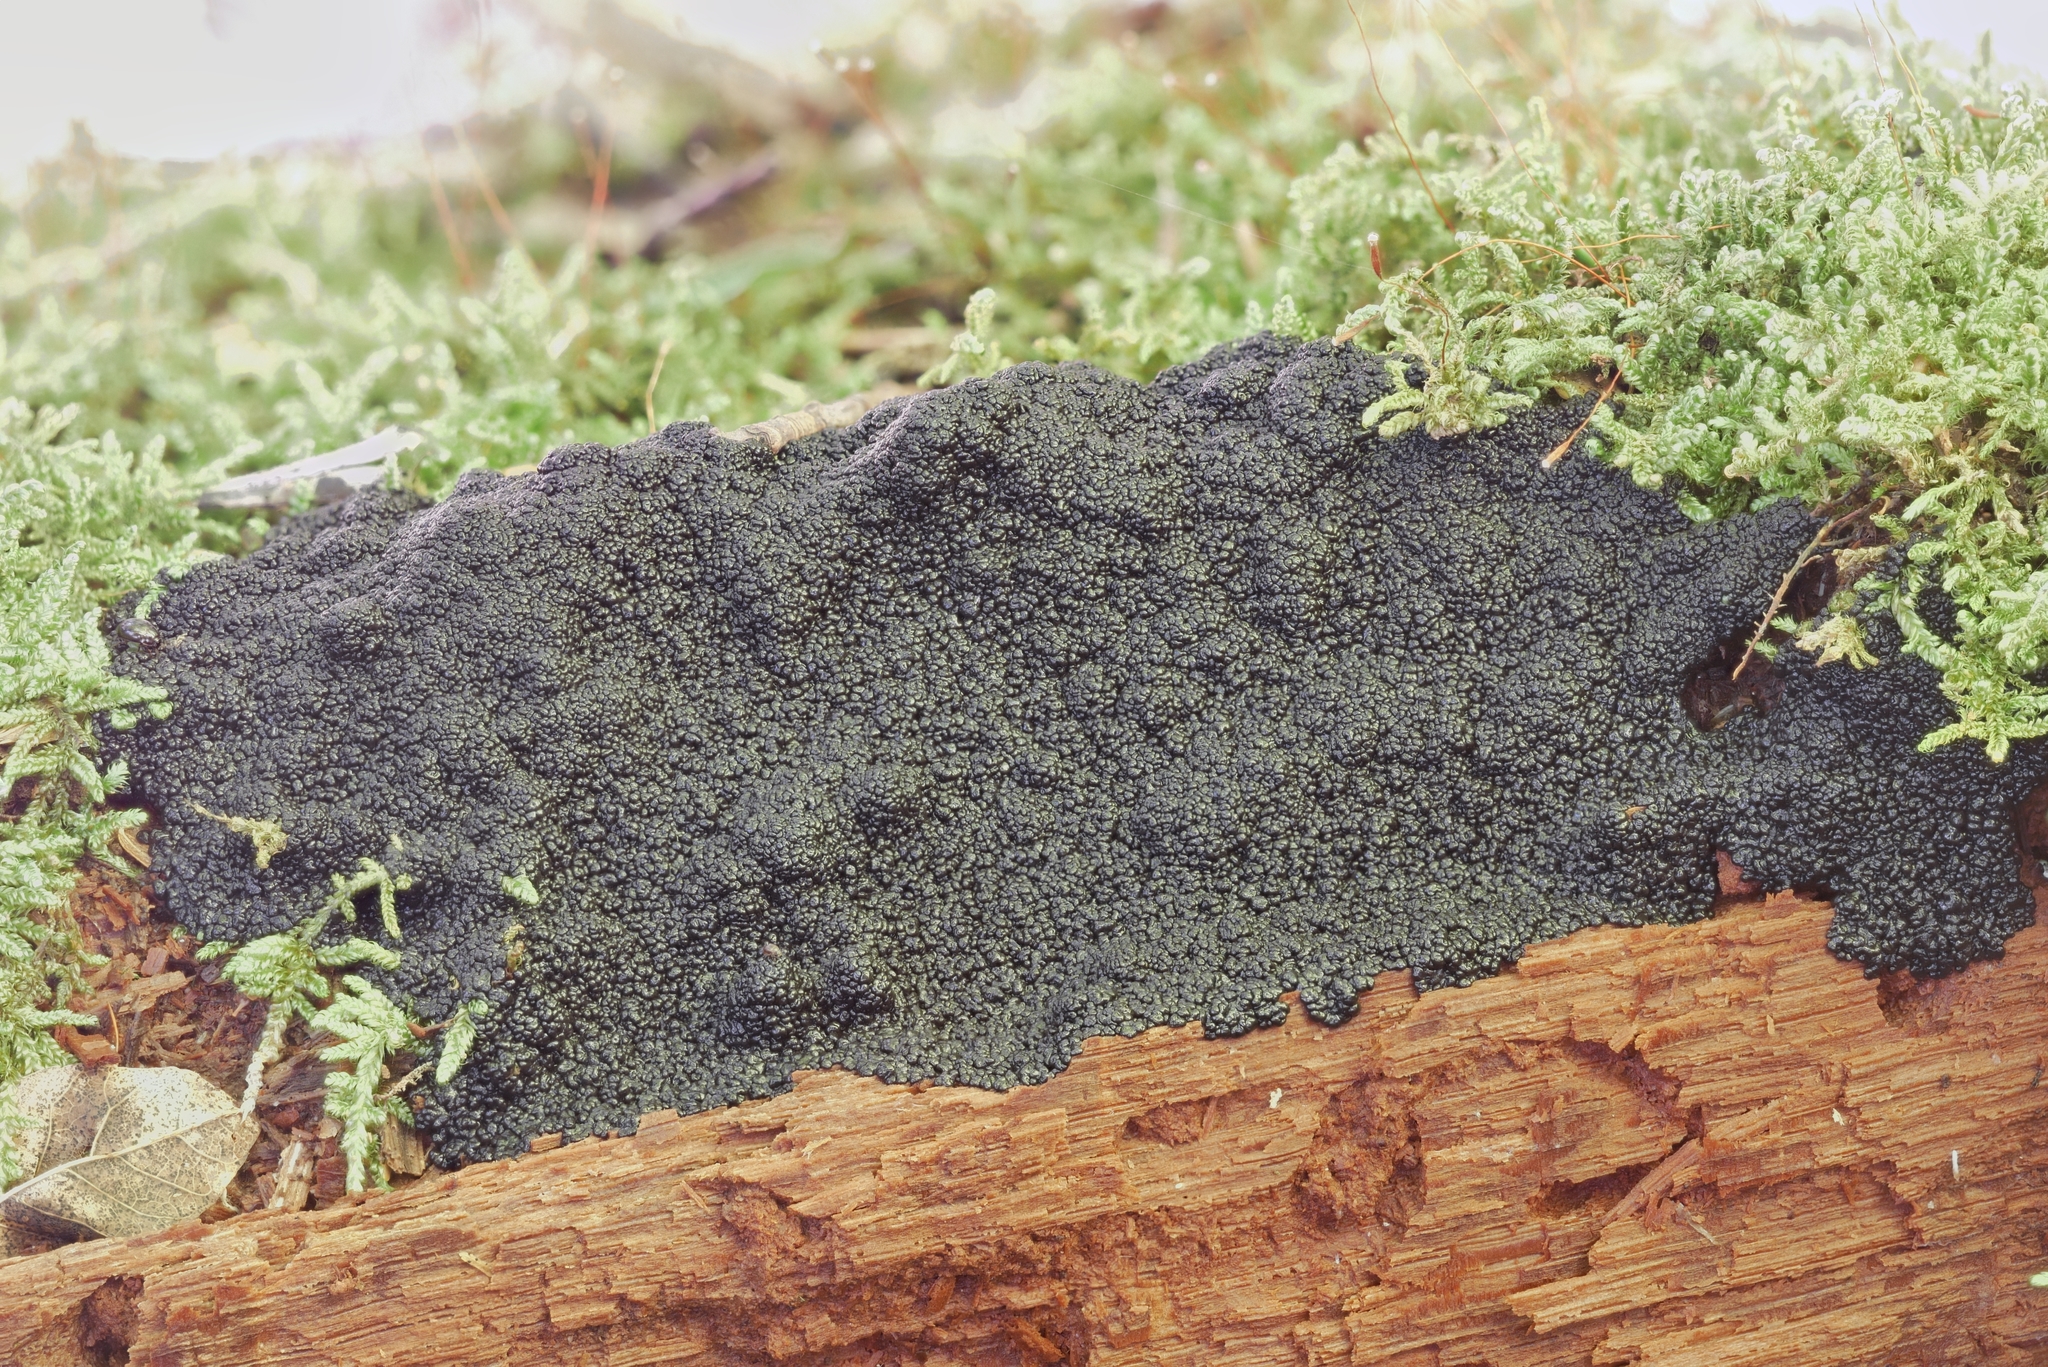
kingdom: Protozoa
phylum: Mycetozoa
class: Myxomycetes
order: Cribrariales
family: Cribrariaceae
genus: Lindbladia
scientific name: Lindbladia tubulina
